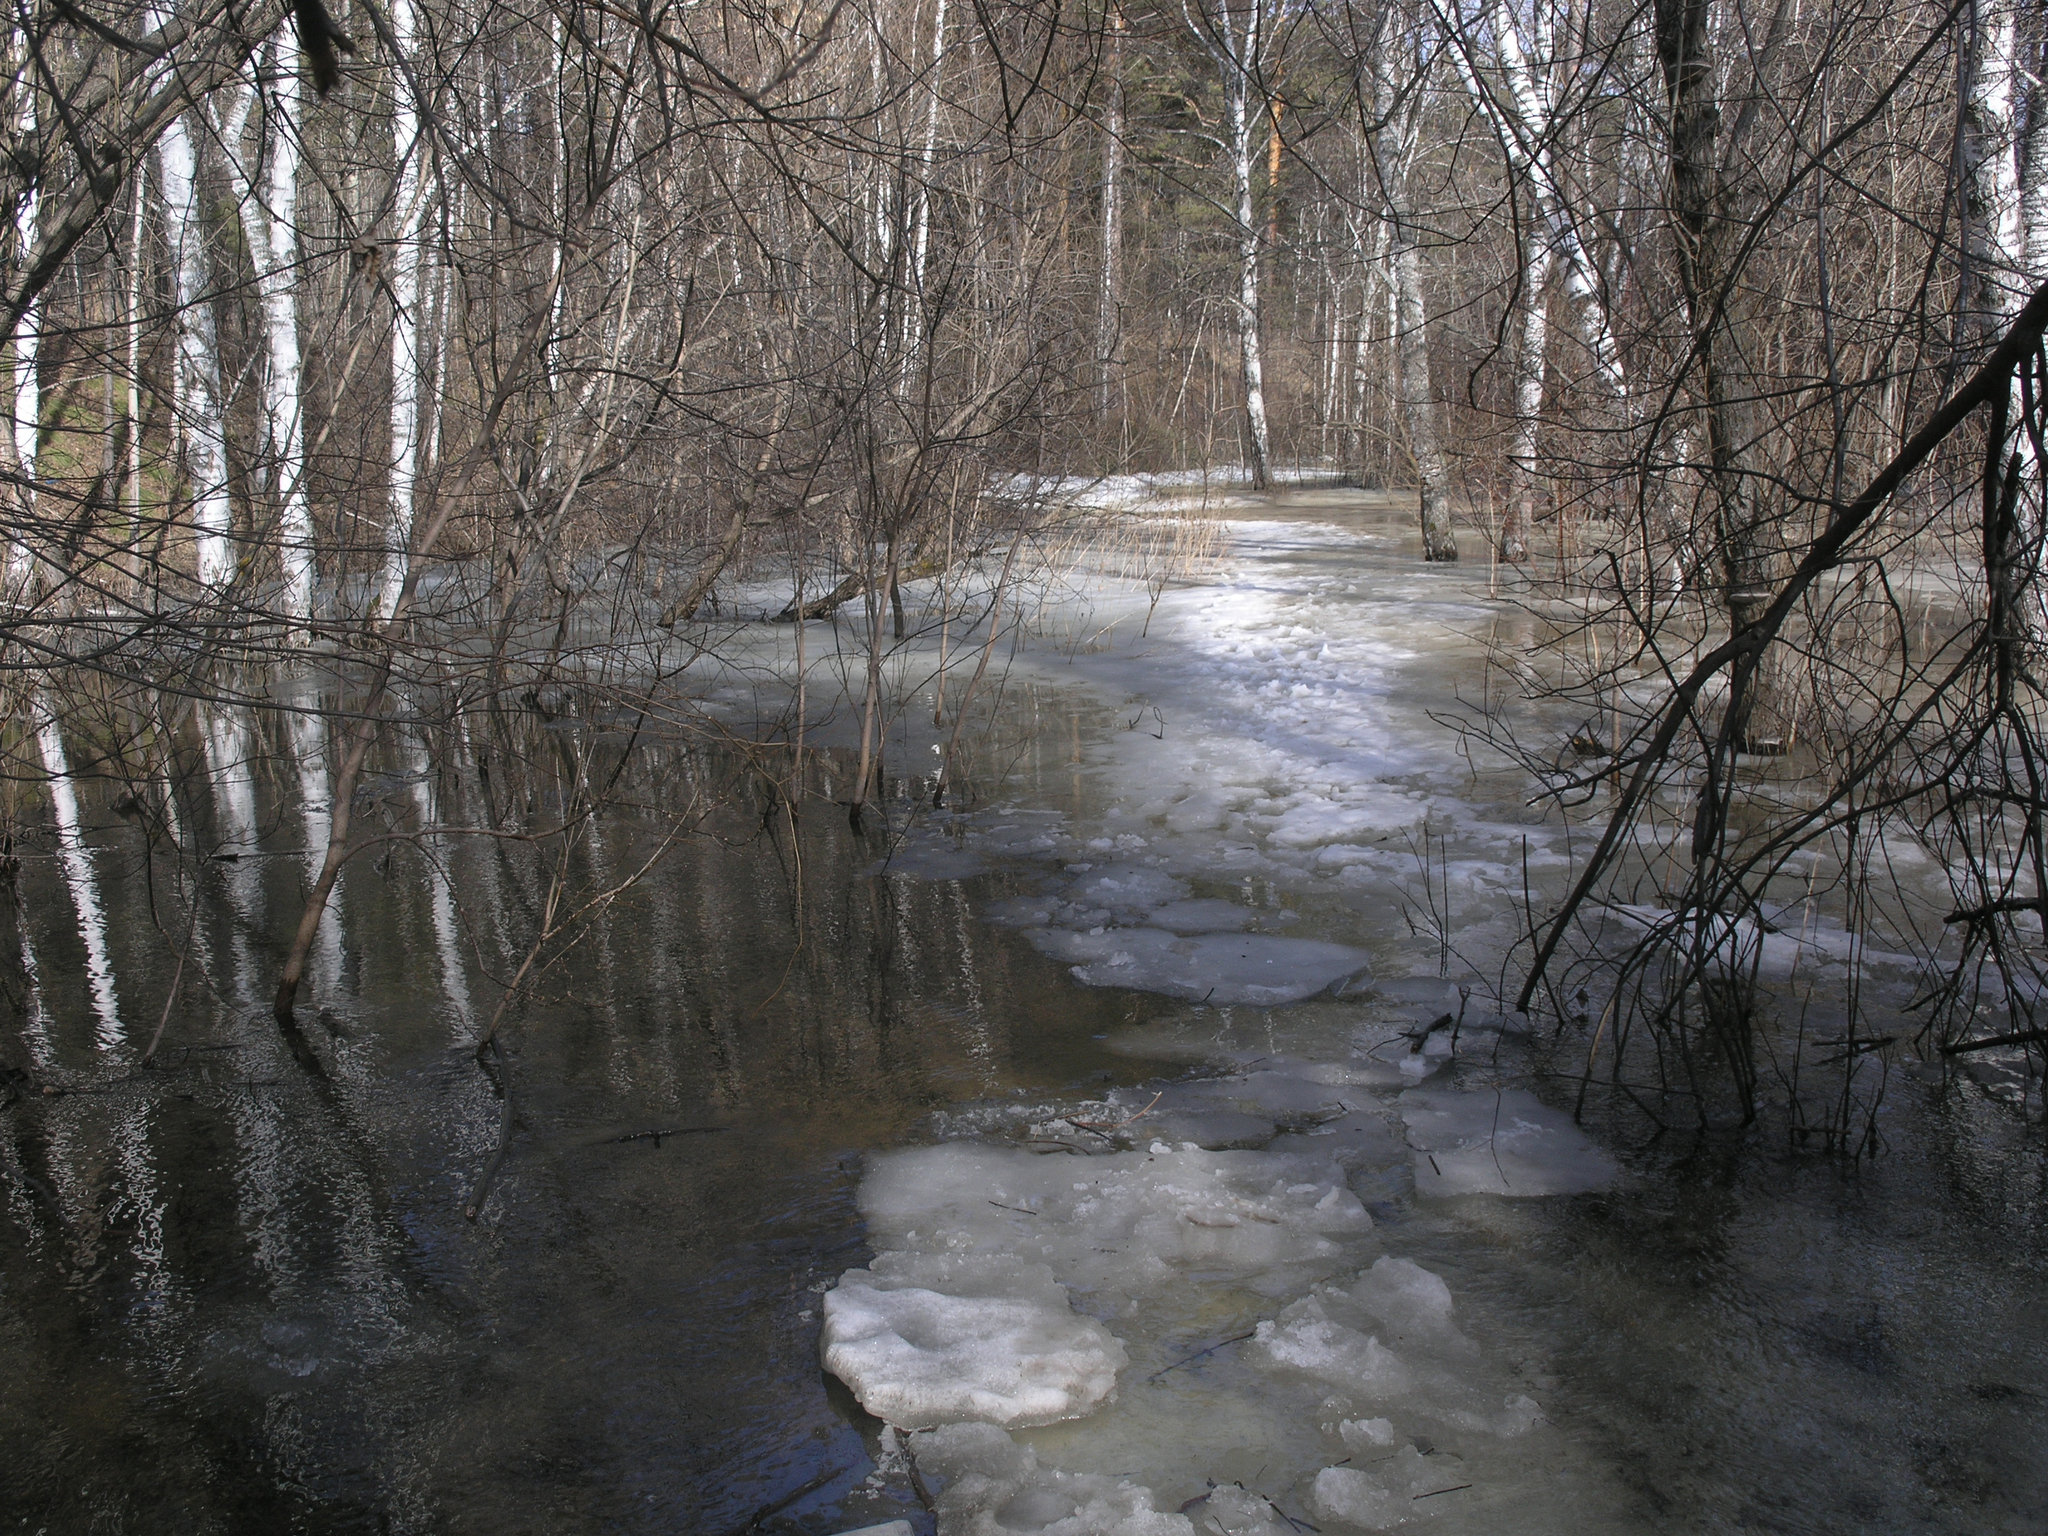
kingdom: Plantae
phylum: Tracheophyta
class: Magnoliopsida
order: Fagales
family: Betulaceae
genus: Betula
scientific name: Betula pendula
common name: Silver birch
